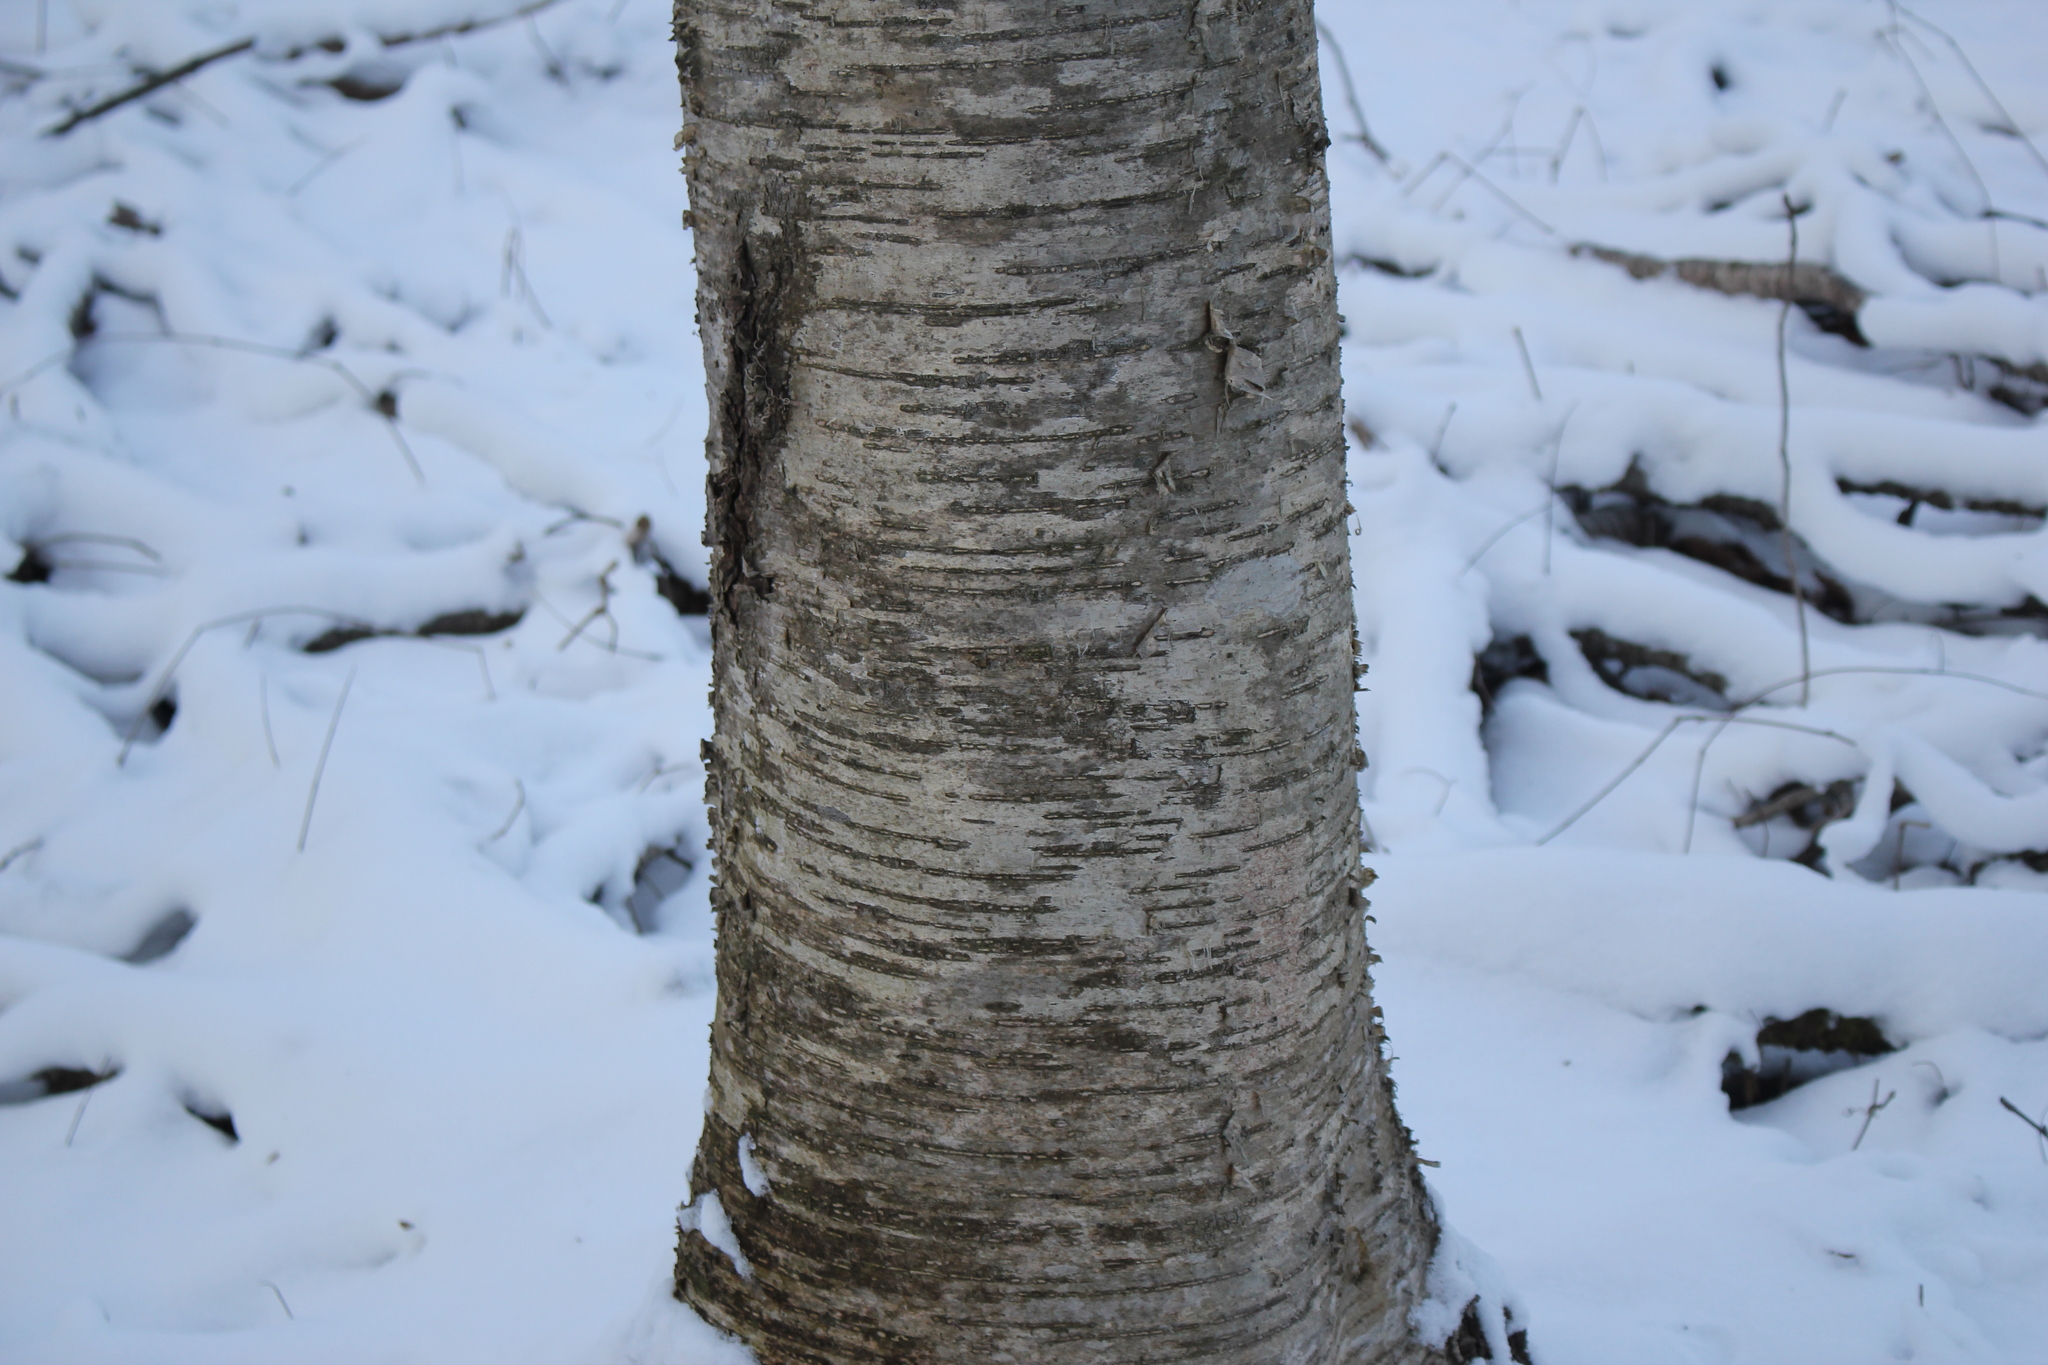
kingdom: Plantae
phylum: Tracheophyta
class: Magnoliopsida
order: Fagales
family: Betulaceae
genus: Betula
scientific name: Betula alleghaniensis
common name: Yellow birch
